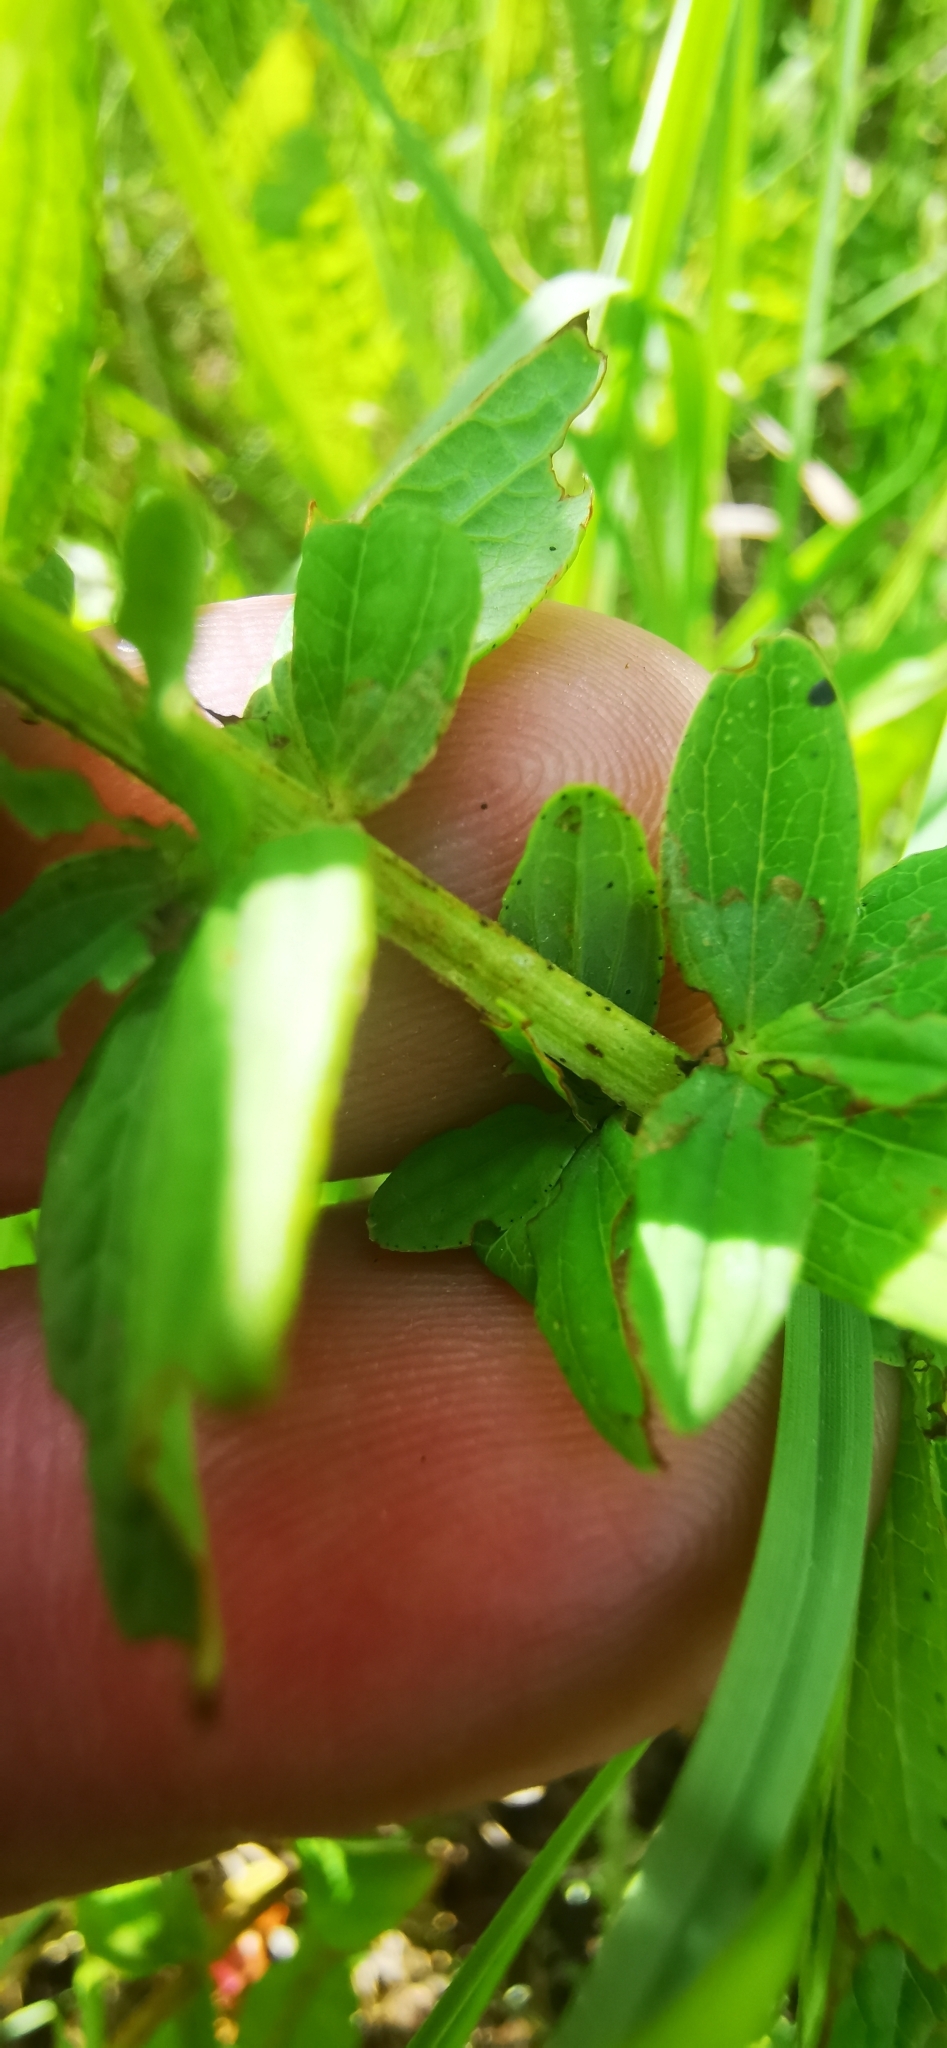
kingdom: Plantae
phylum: Tracheophyta
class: Magnoliopsida
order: Malpighiales
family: Hypericaceae
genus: Hypericum
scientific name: Hypericum maculatum
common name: Imperforate st. john's-wort
